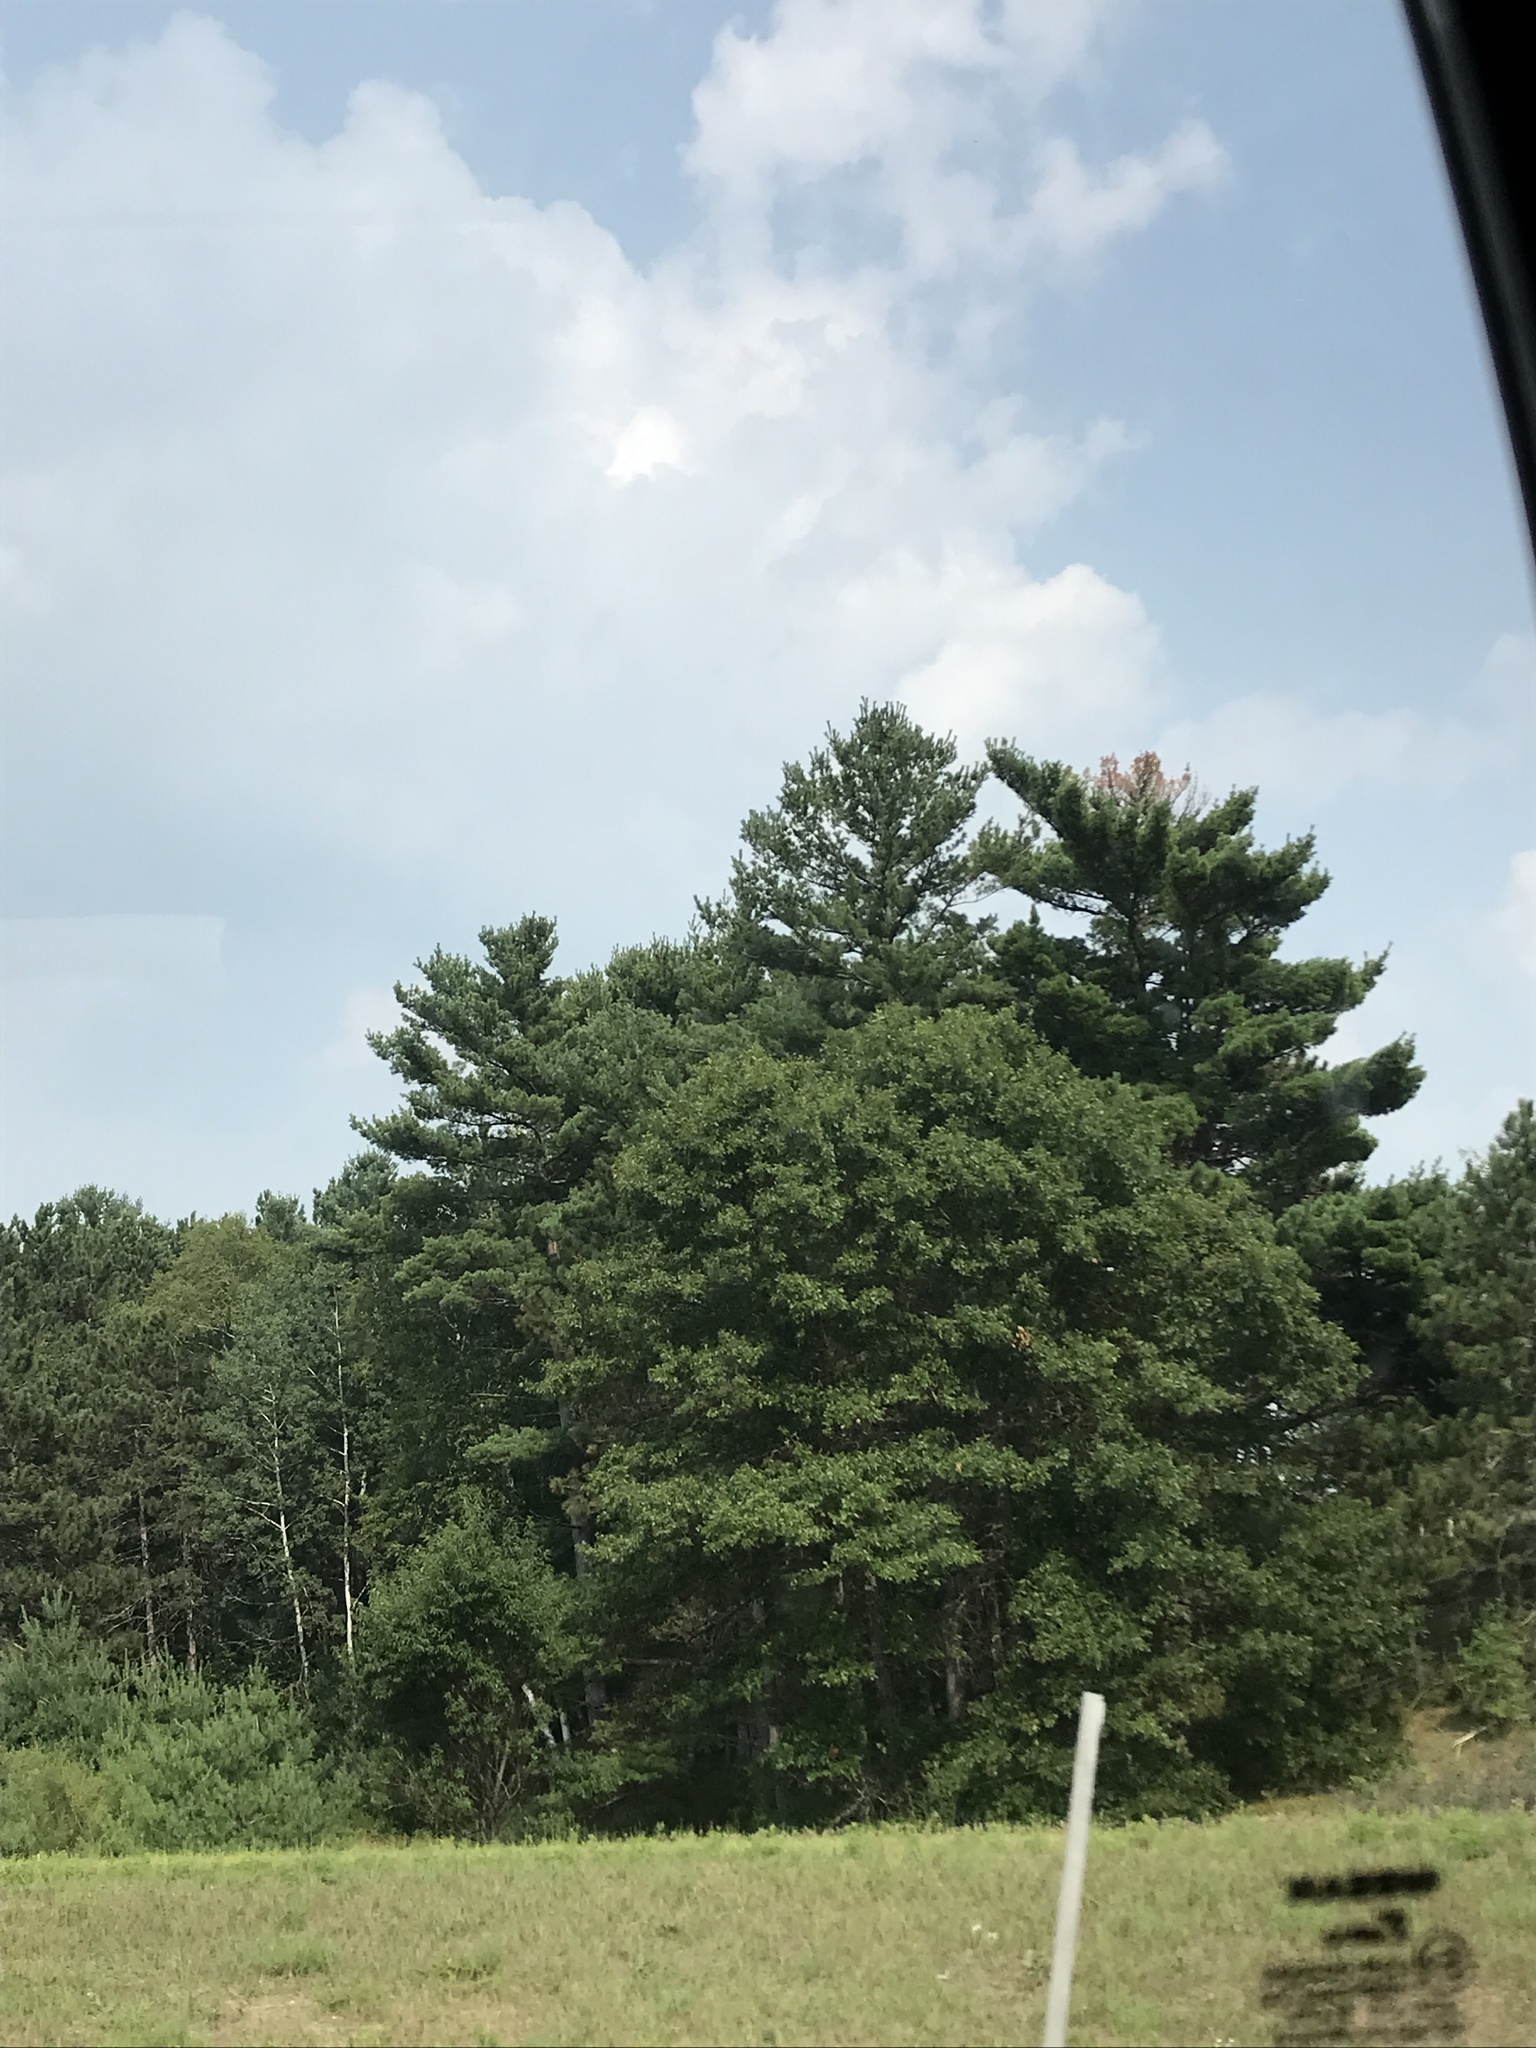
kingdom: Plantae
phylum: Tracheophyta
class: Pinopsida
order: Pinales
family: Pinaceae
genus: Pinus
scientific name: Pinus strobus
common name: Weymouth pine
